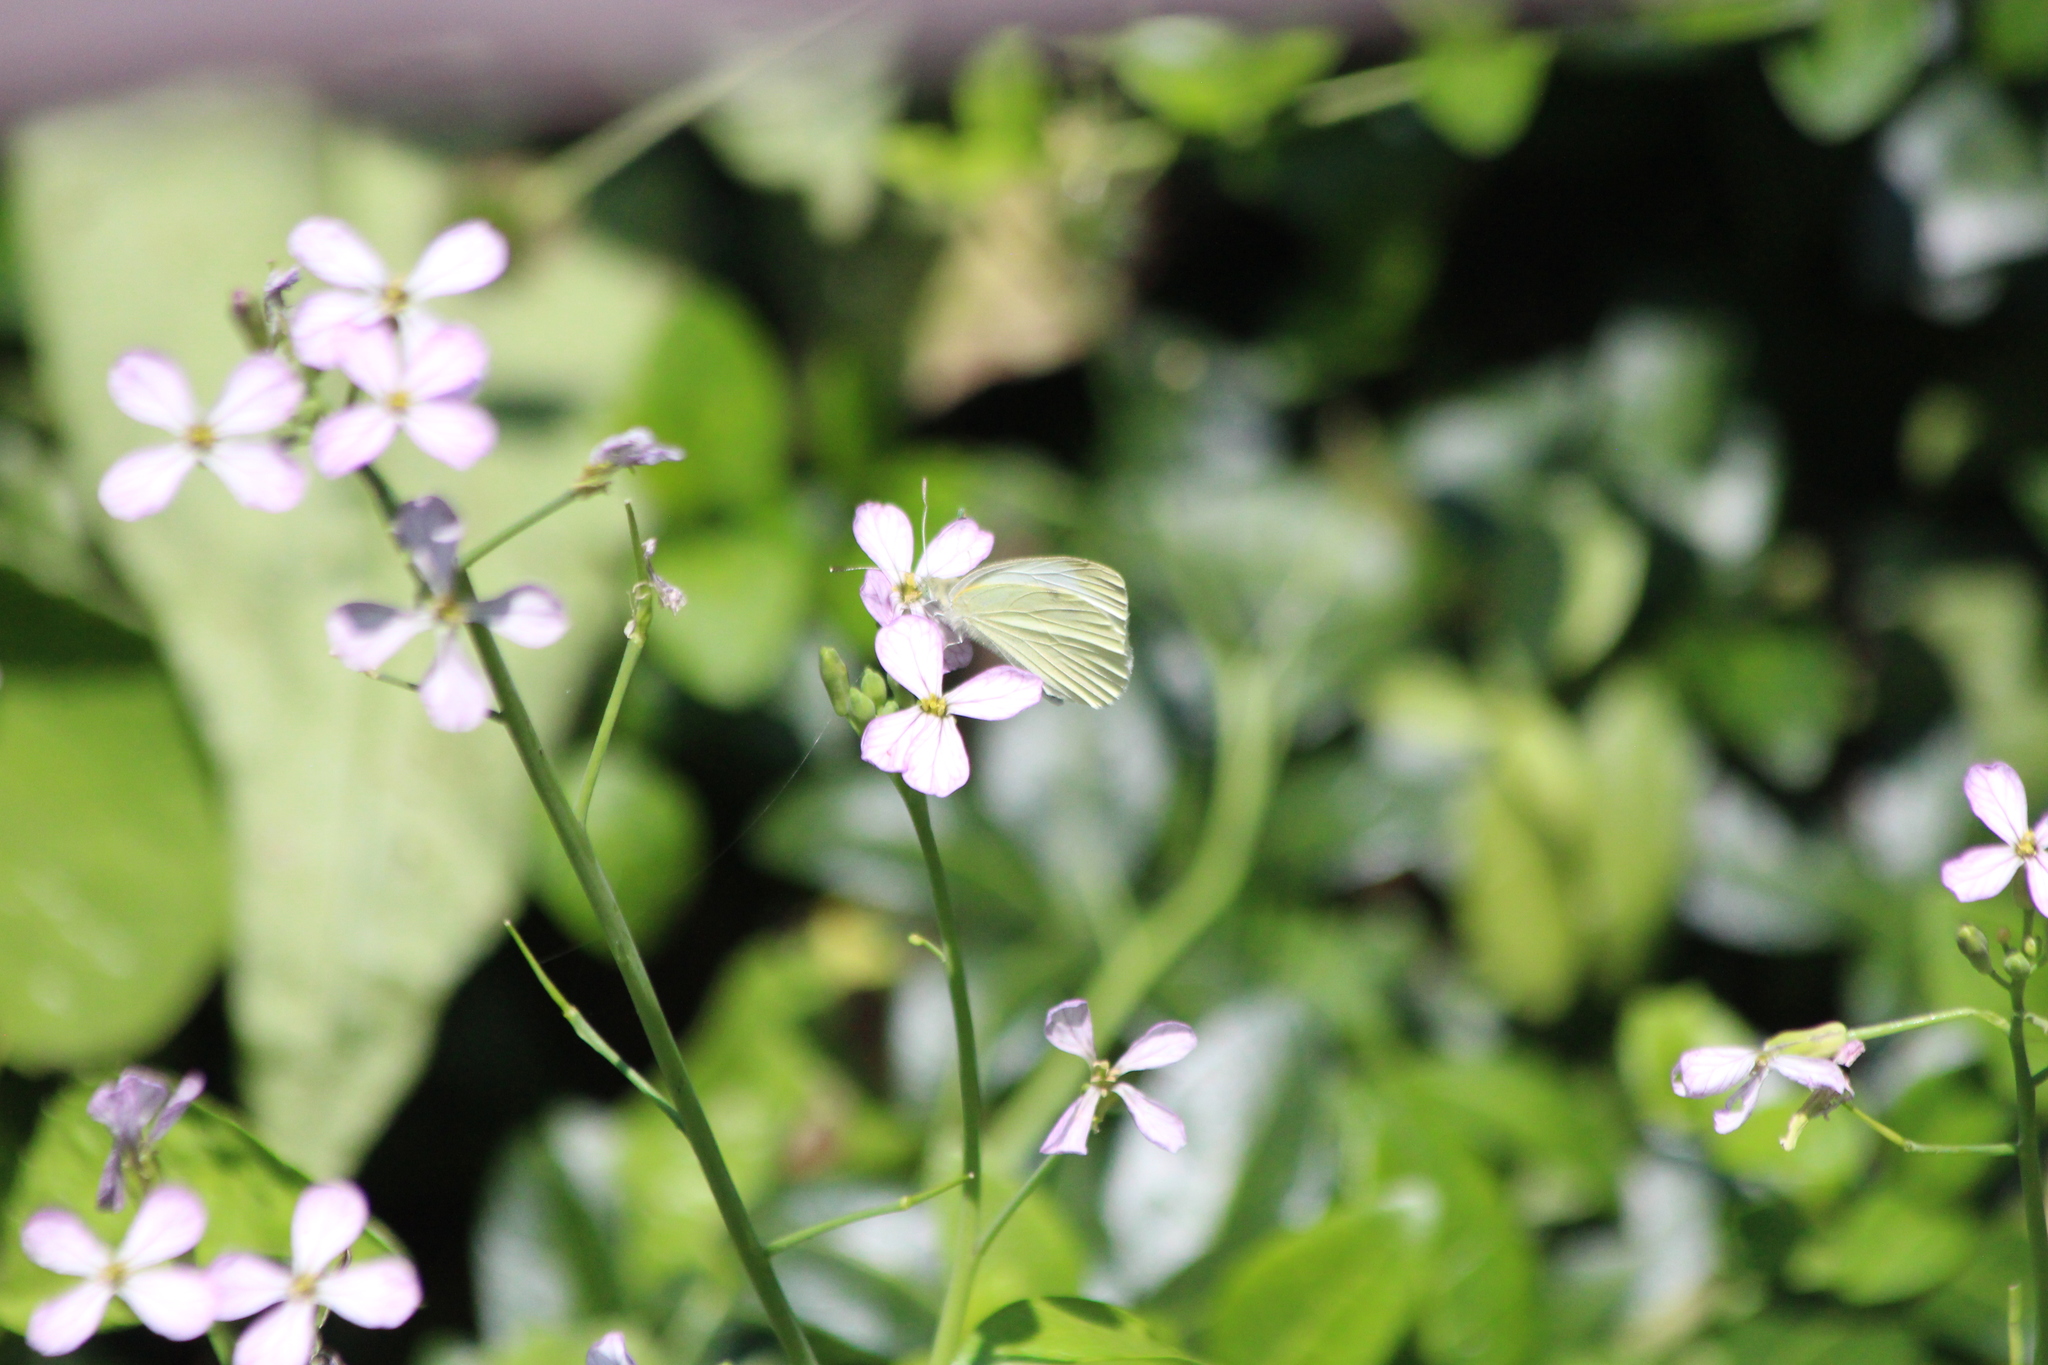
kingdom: Animalia
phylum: Arthropoda
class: Insecta
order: Lepidoptera
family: Pieridae
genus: Pieris
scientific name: Pieris rapae
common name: Small white
